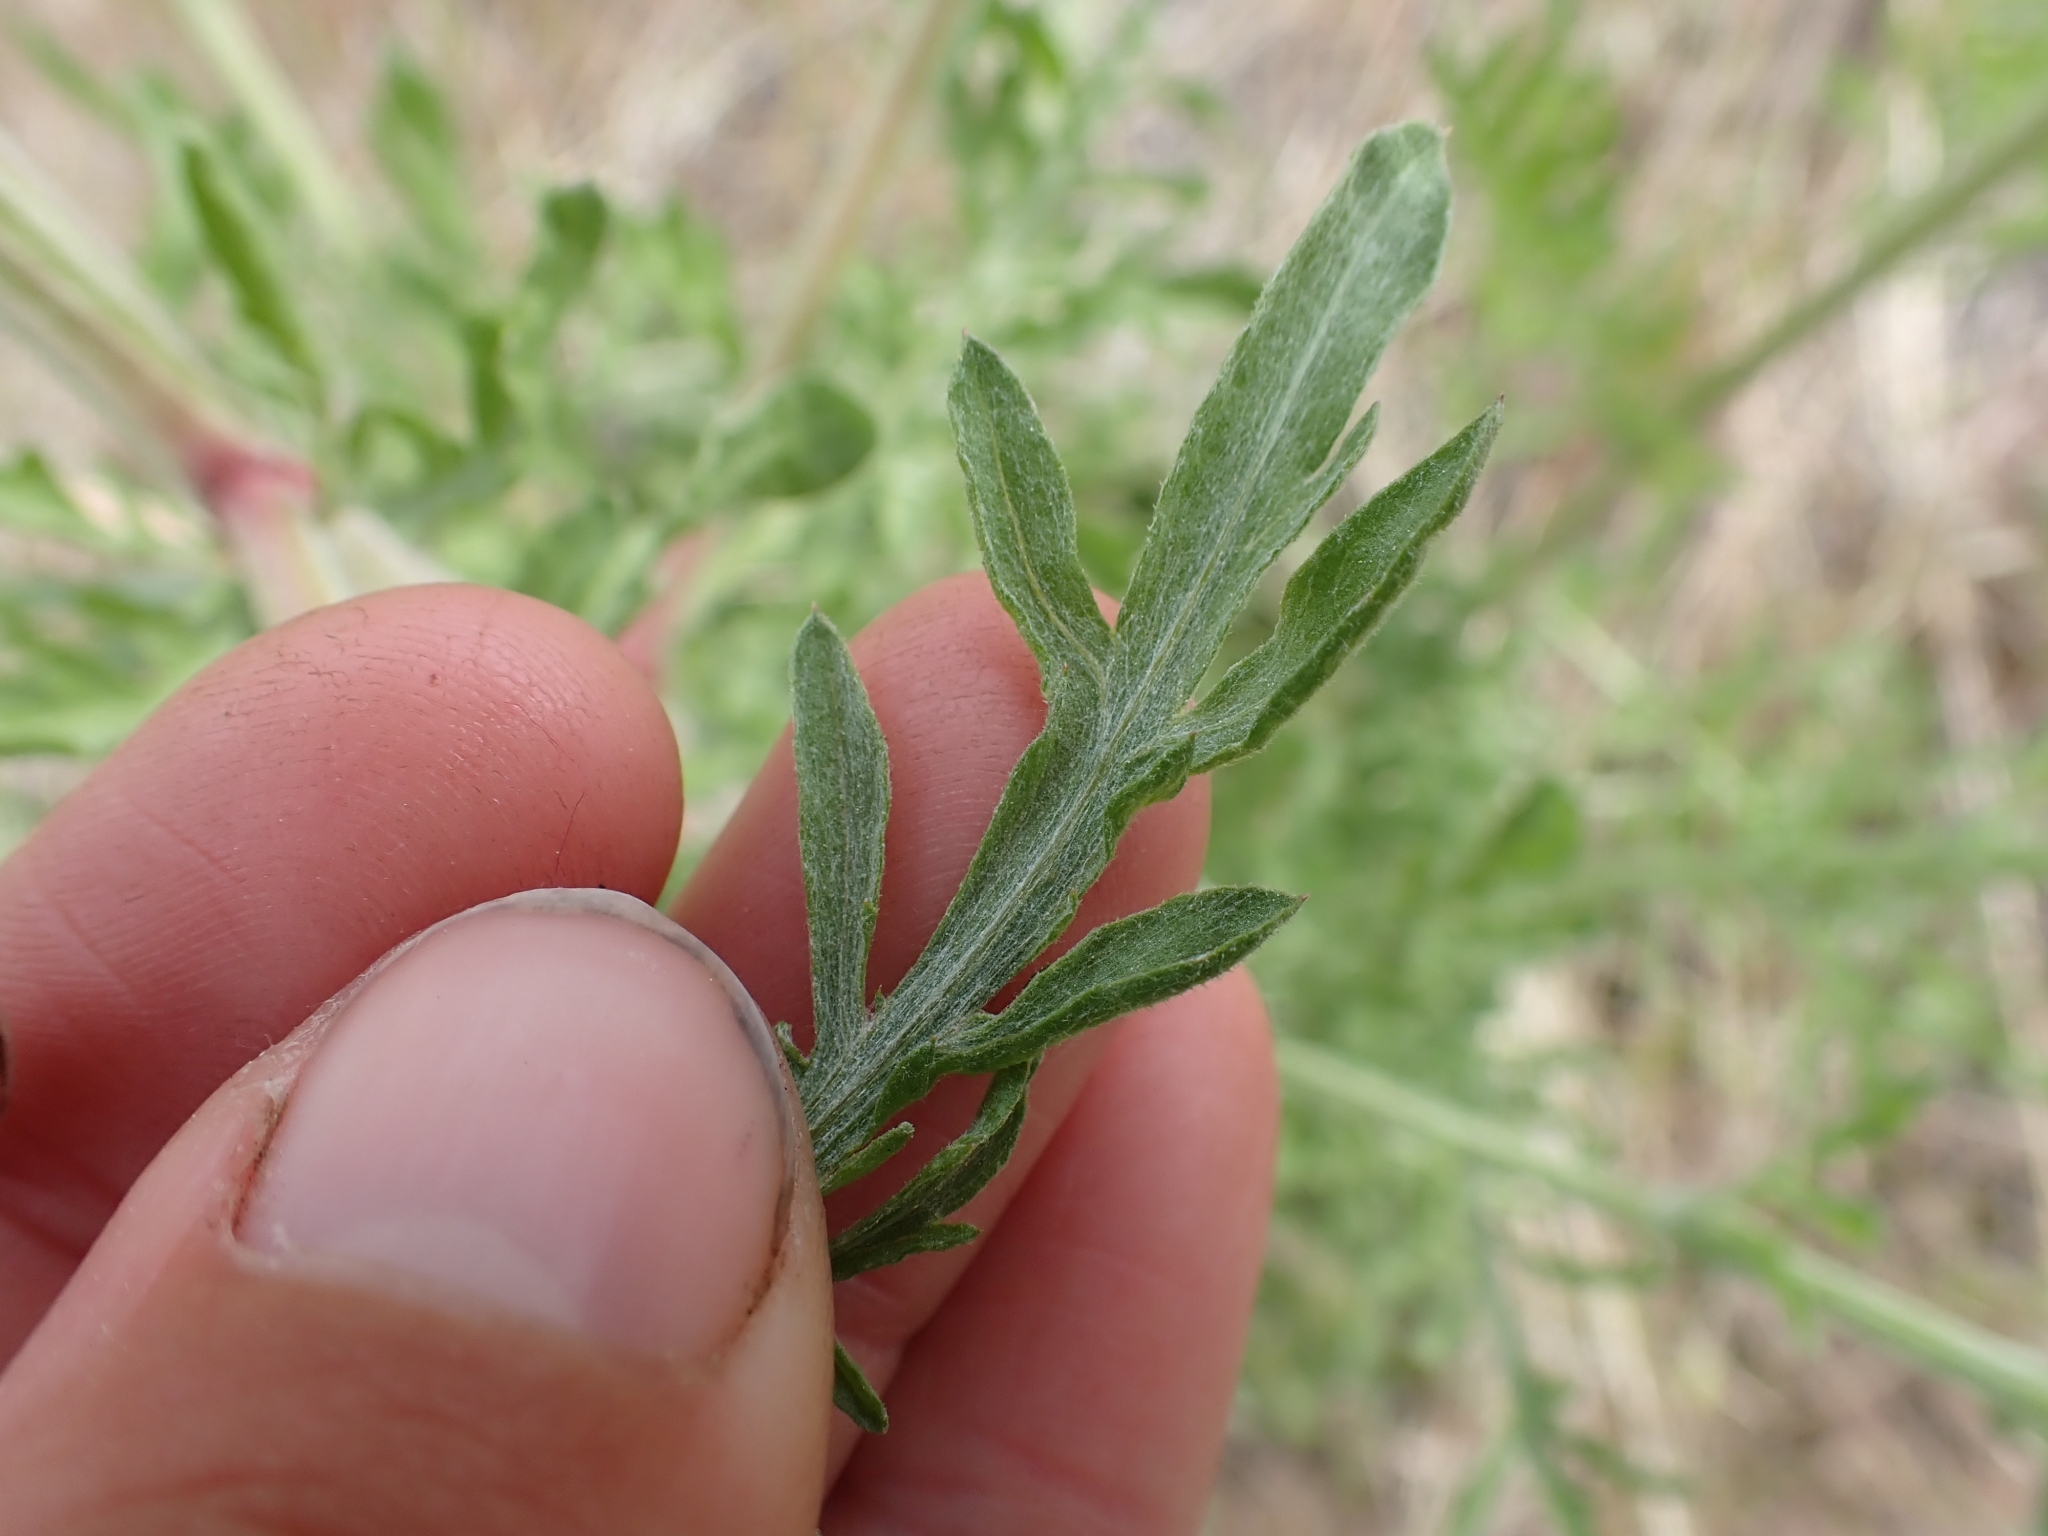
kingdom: Plantae
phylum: Tracheophyta
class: Magnoliopsida
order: Asterales
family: Asteraceae
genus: Centaurea
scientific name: Centaurea diffusa
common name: Diffuse knapweed
